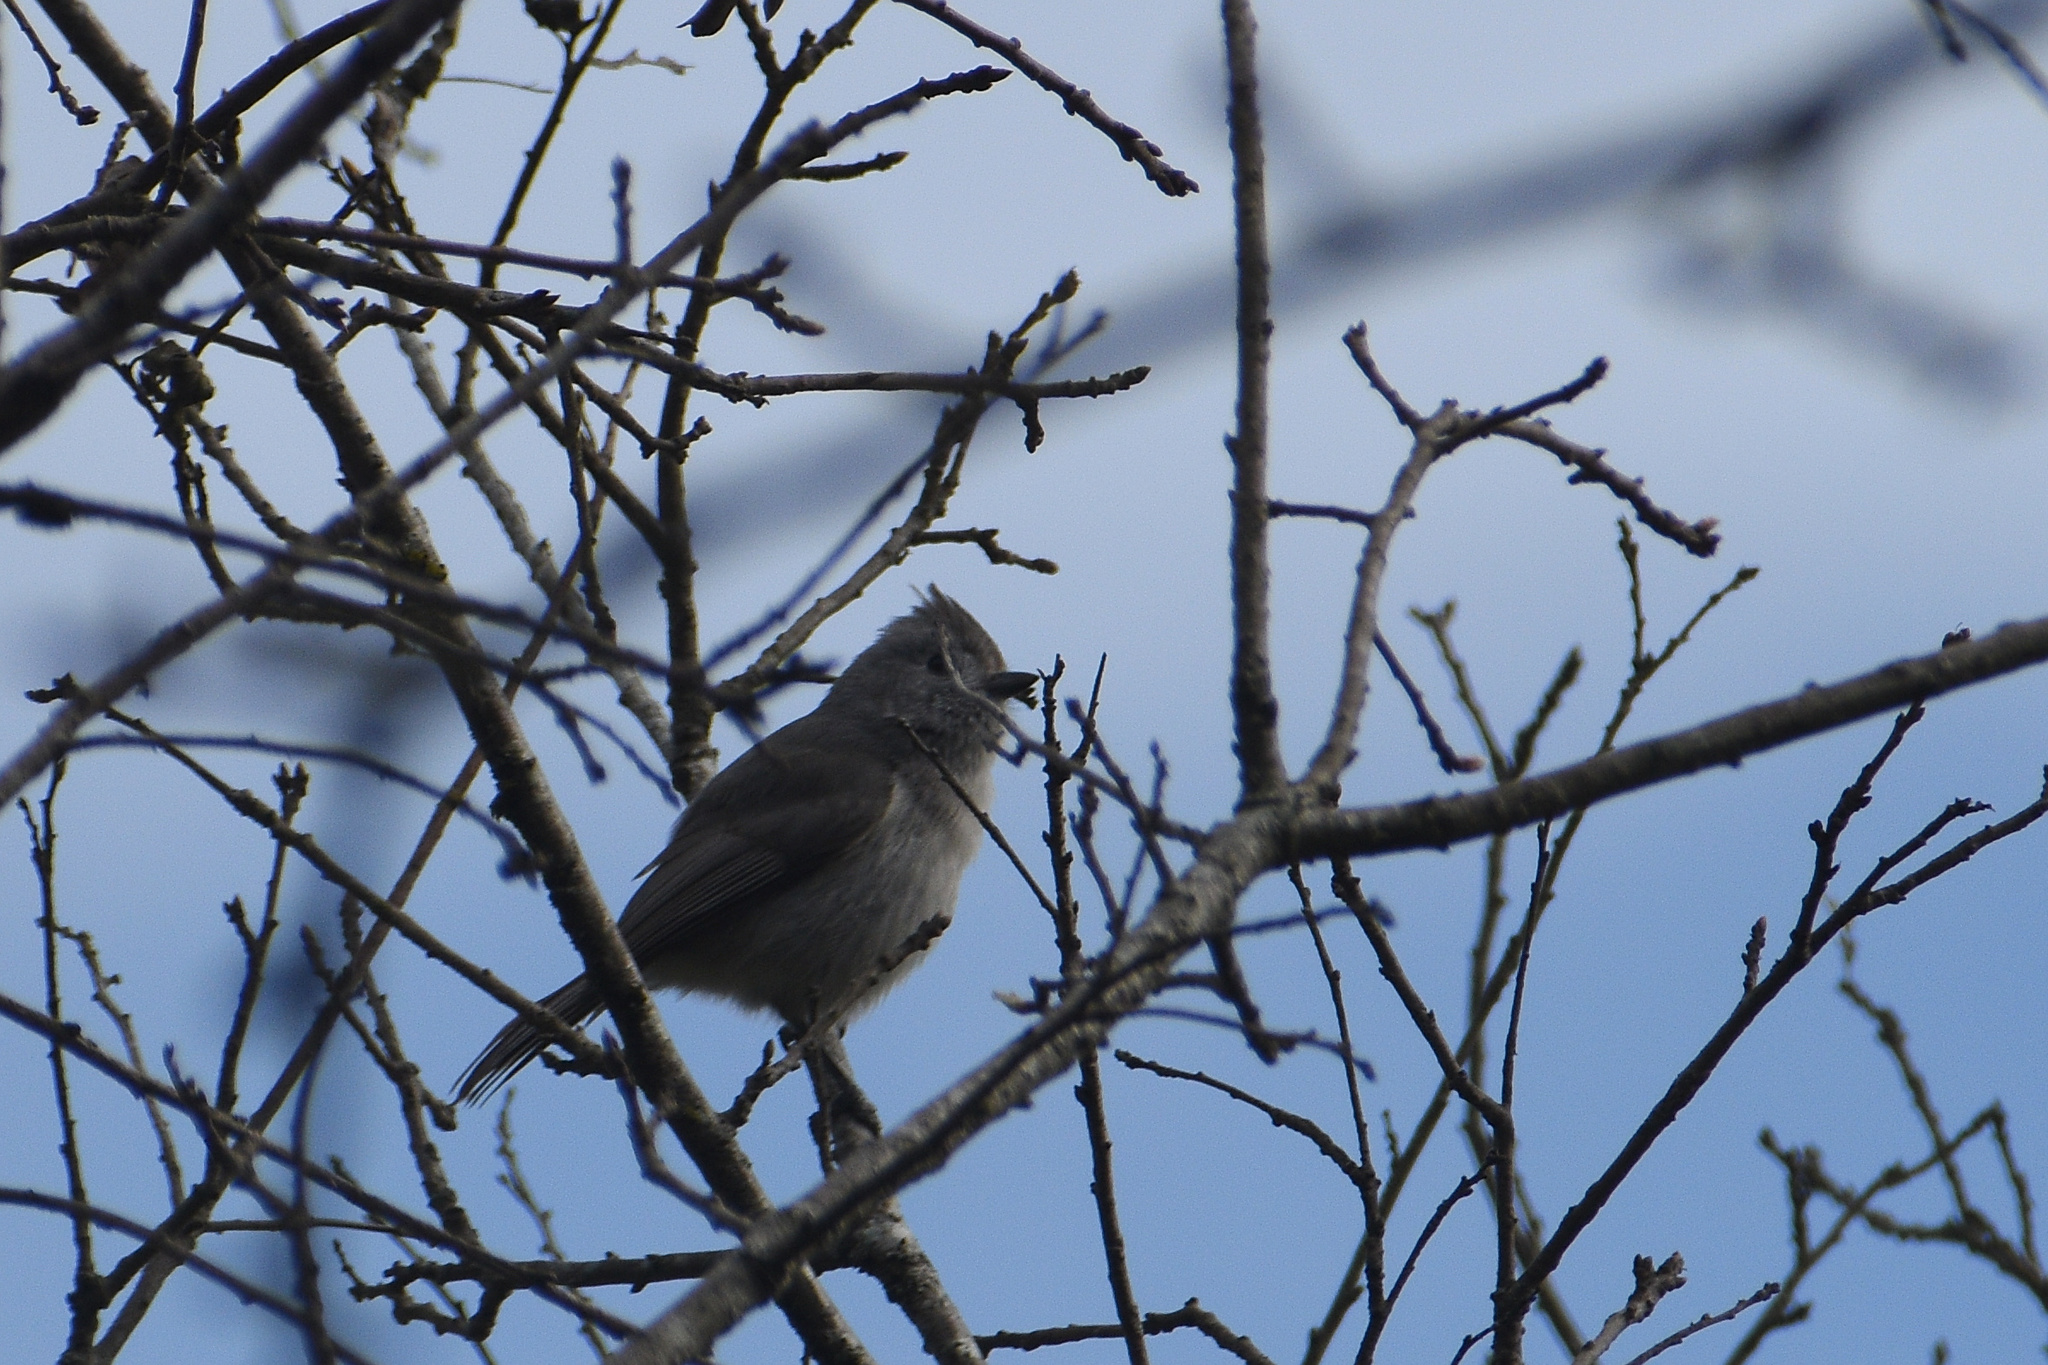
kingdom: Animalia
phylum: Chordata
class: Aves
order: Passeriformes
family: Paridae
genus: Baeolophus
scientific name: Baeolophus inornatus
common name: Oak titmouse
